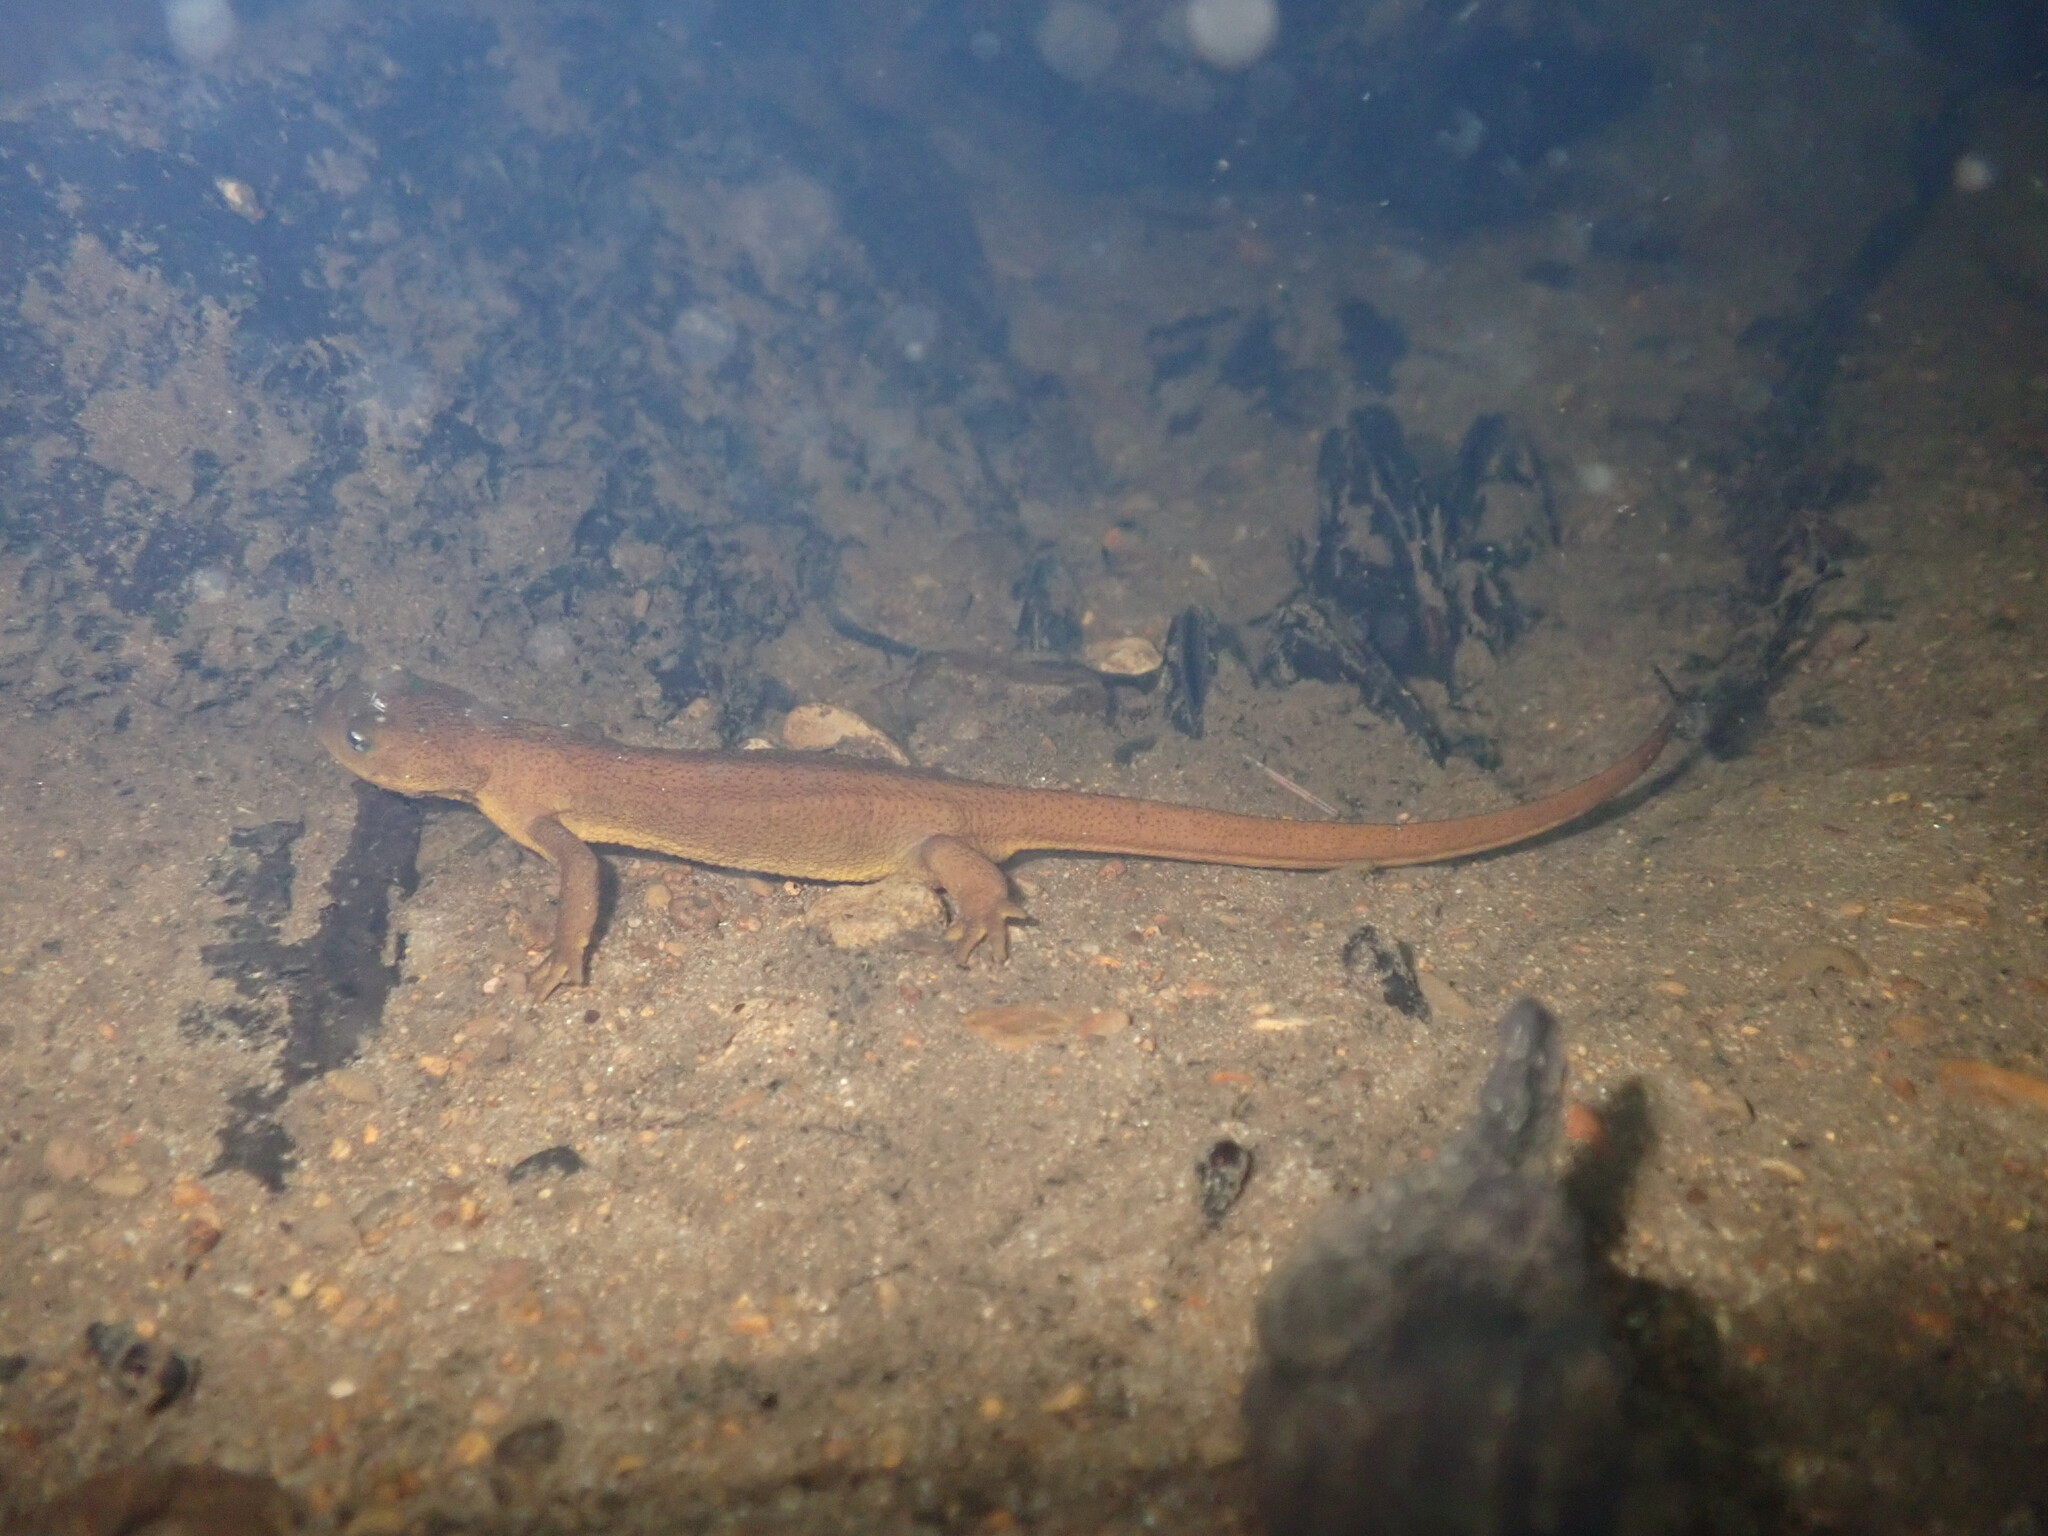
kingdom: Animalia
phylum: Chordata
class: Amphibia
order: Caudata
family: Salamandridae
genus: Taricha
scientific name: Taricha granulosa
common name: Roughskin newt
